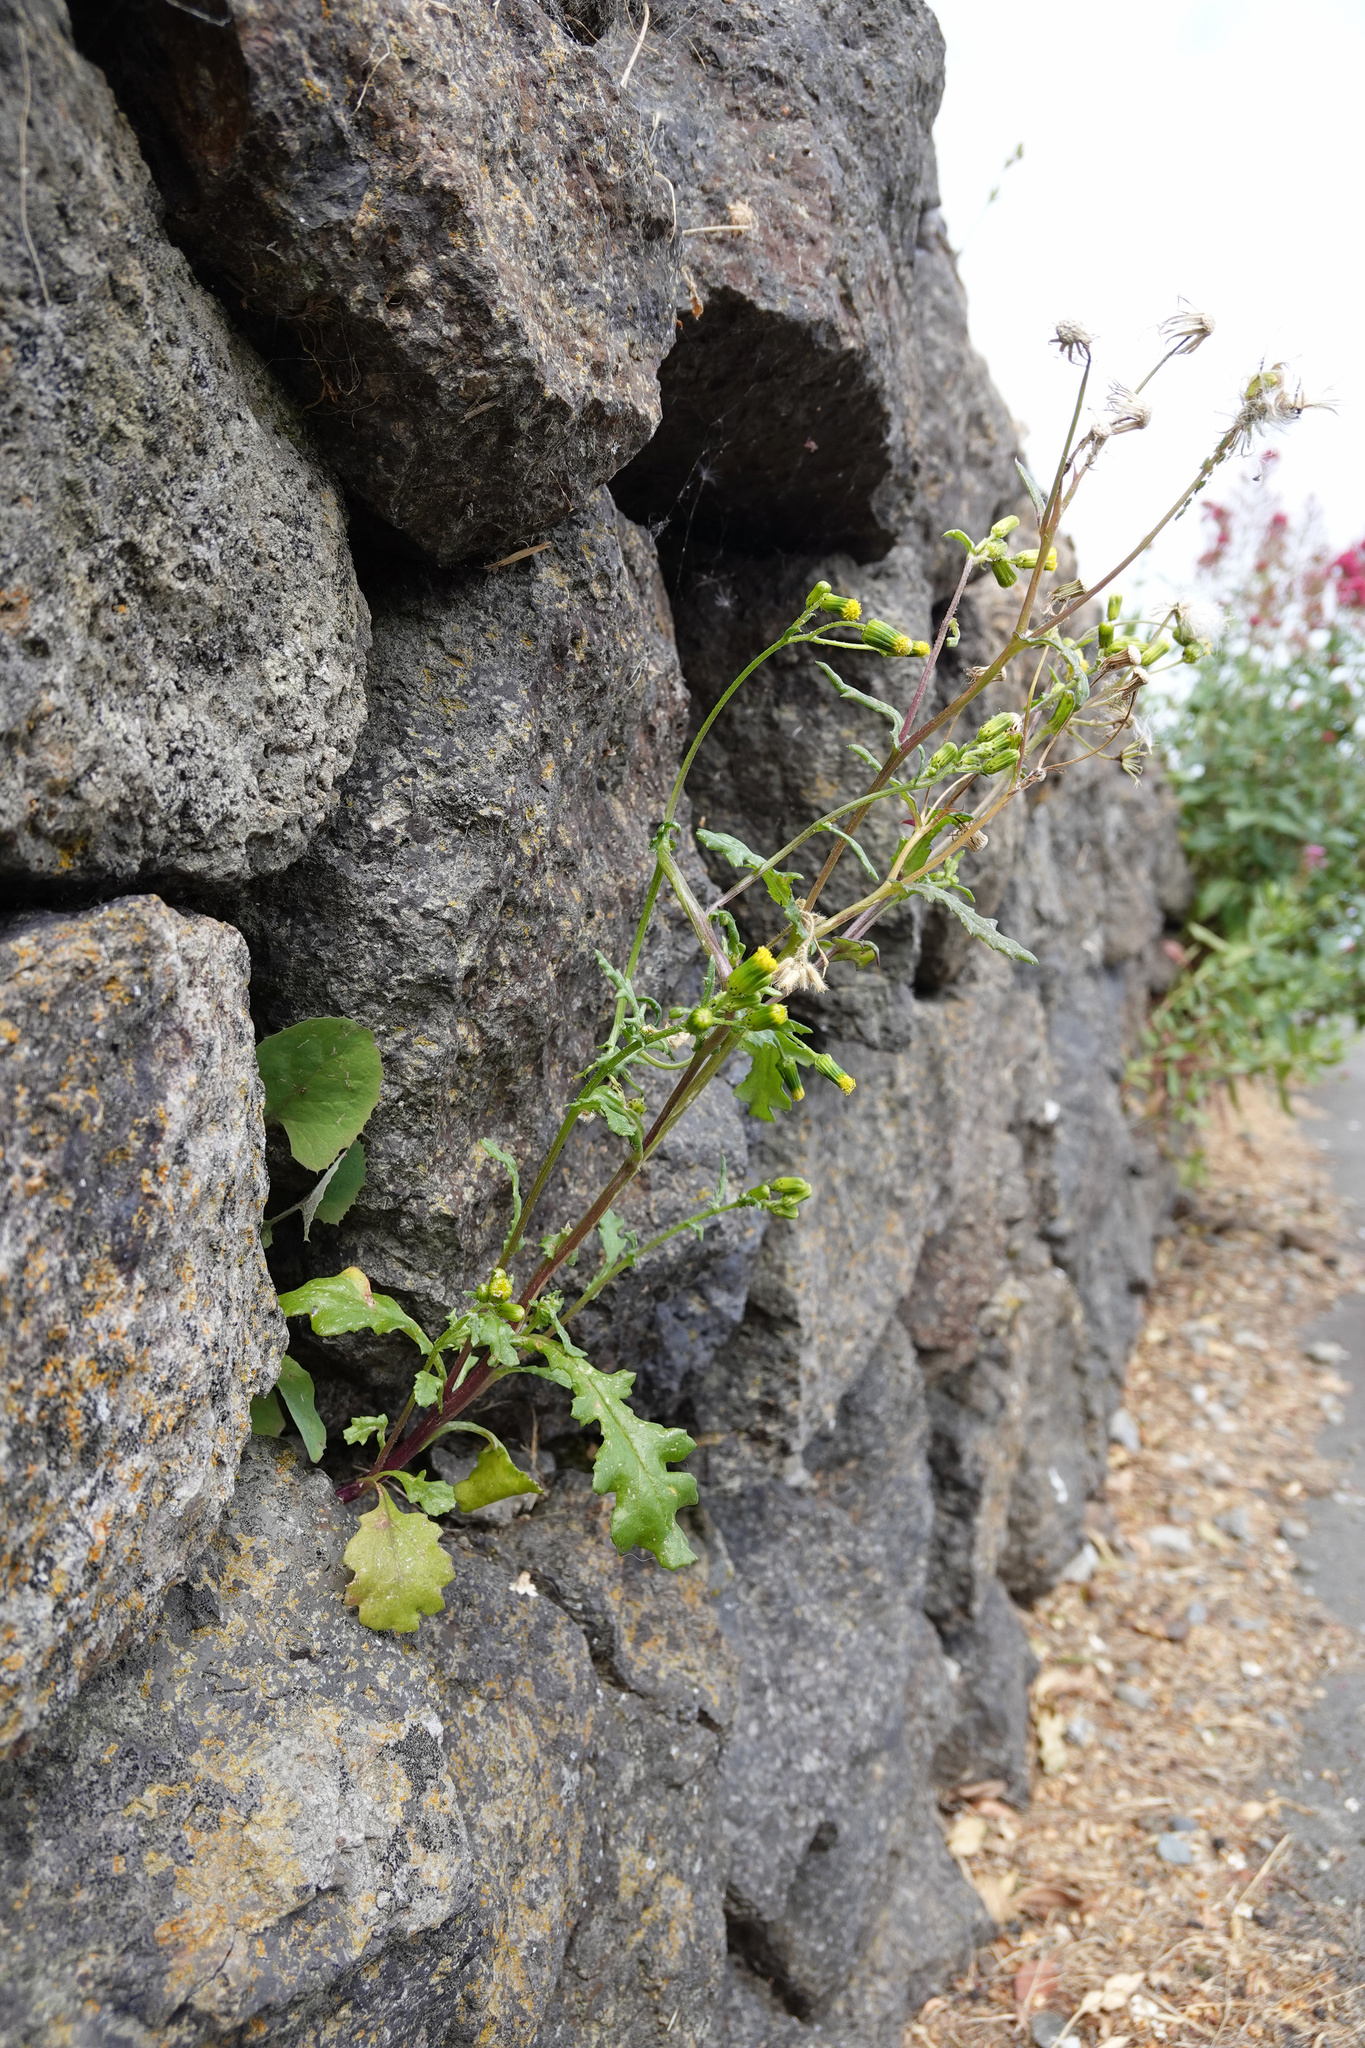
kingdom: Plantae
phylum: Tracheophyta
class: Magnoliopsida
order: Asterales
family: Asteraceae
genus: Senecio
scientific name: Senecio vulgaris
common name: Old-man-in-the-spring
